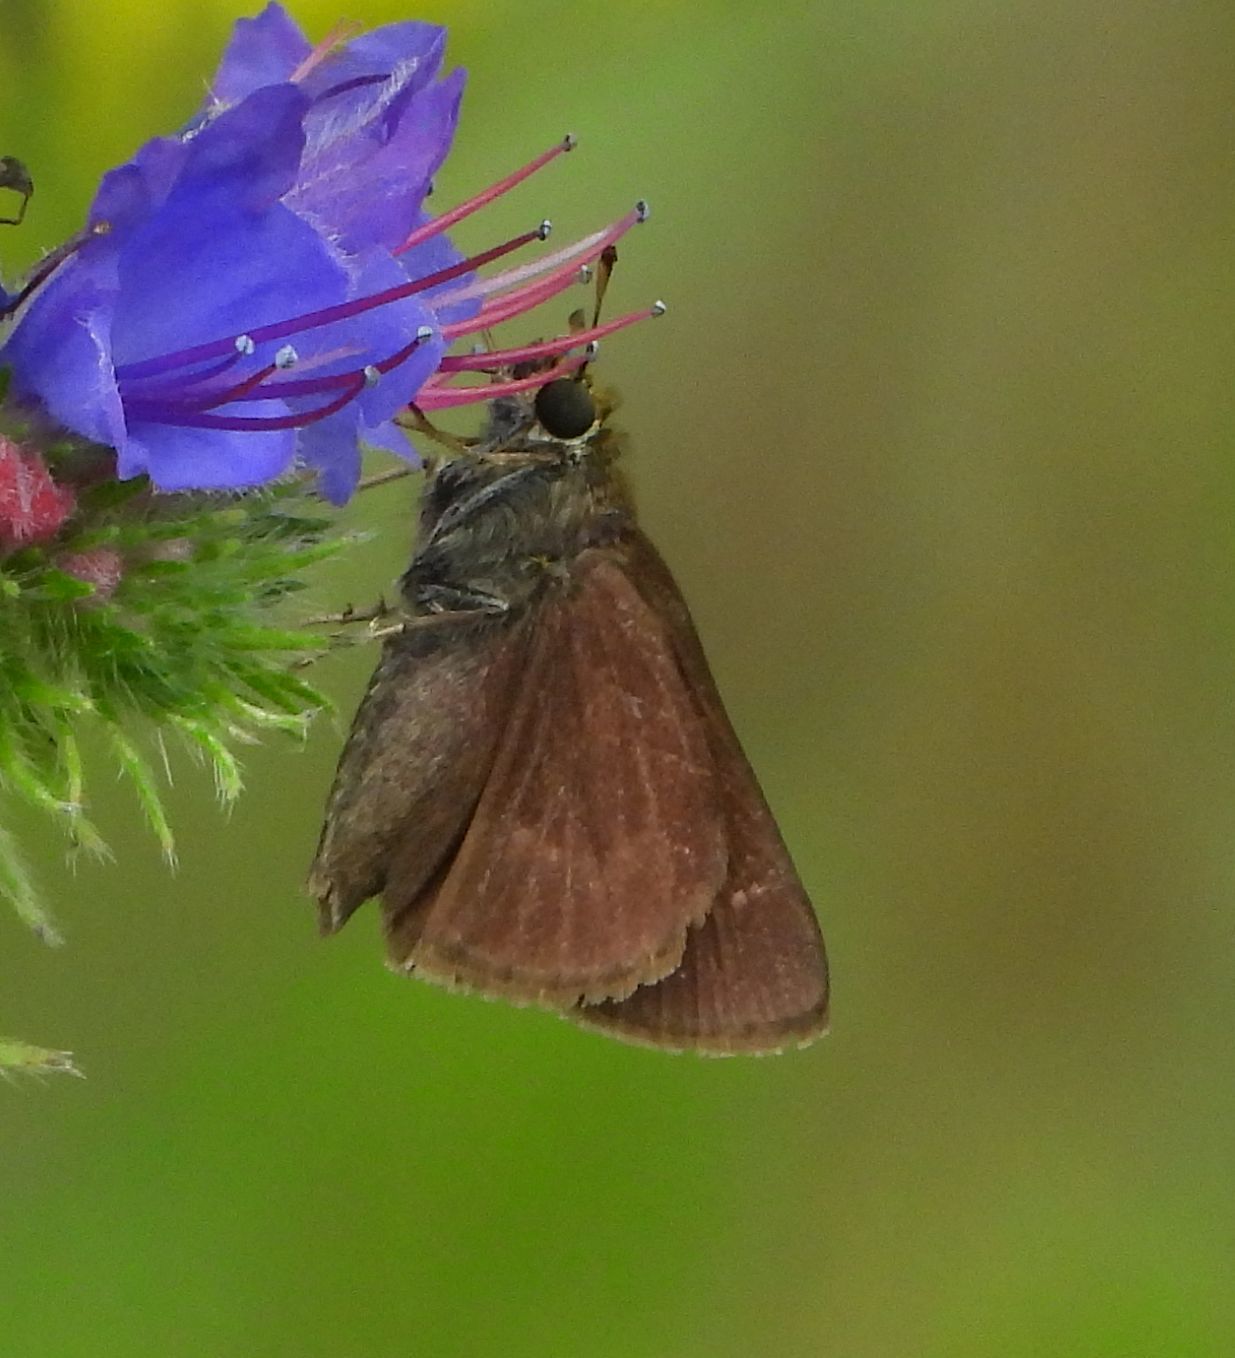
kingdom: Animalia
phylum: Arthropoda
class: Insecta
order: Lepidoptera
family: Hesperiidae
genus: Euphyes
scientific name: Euphyes vestris
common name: Dun skipper
